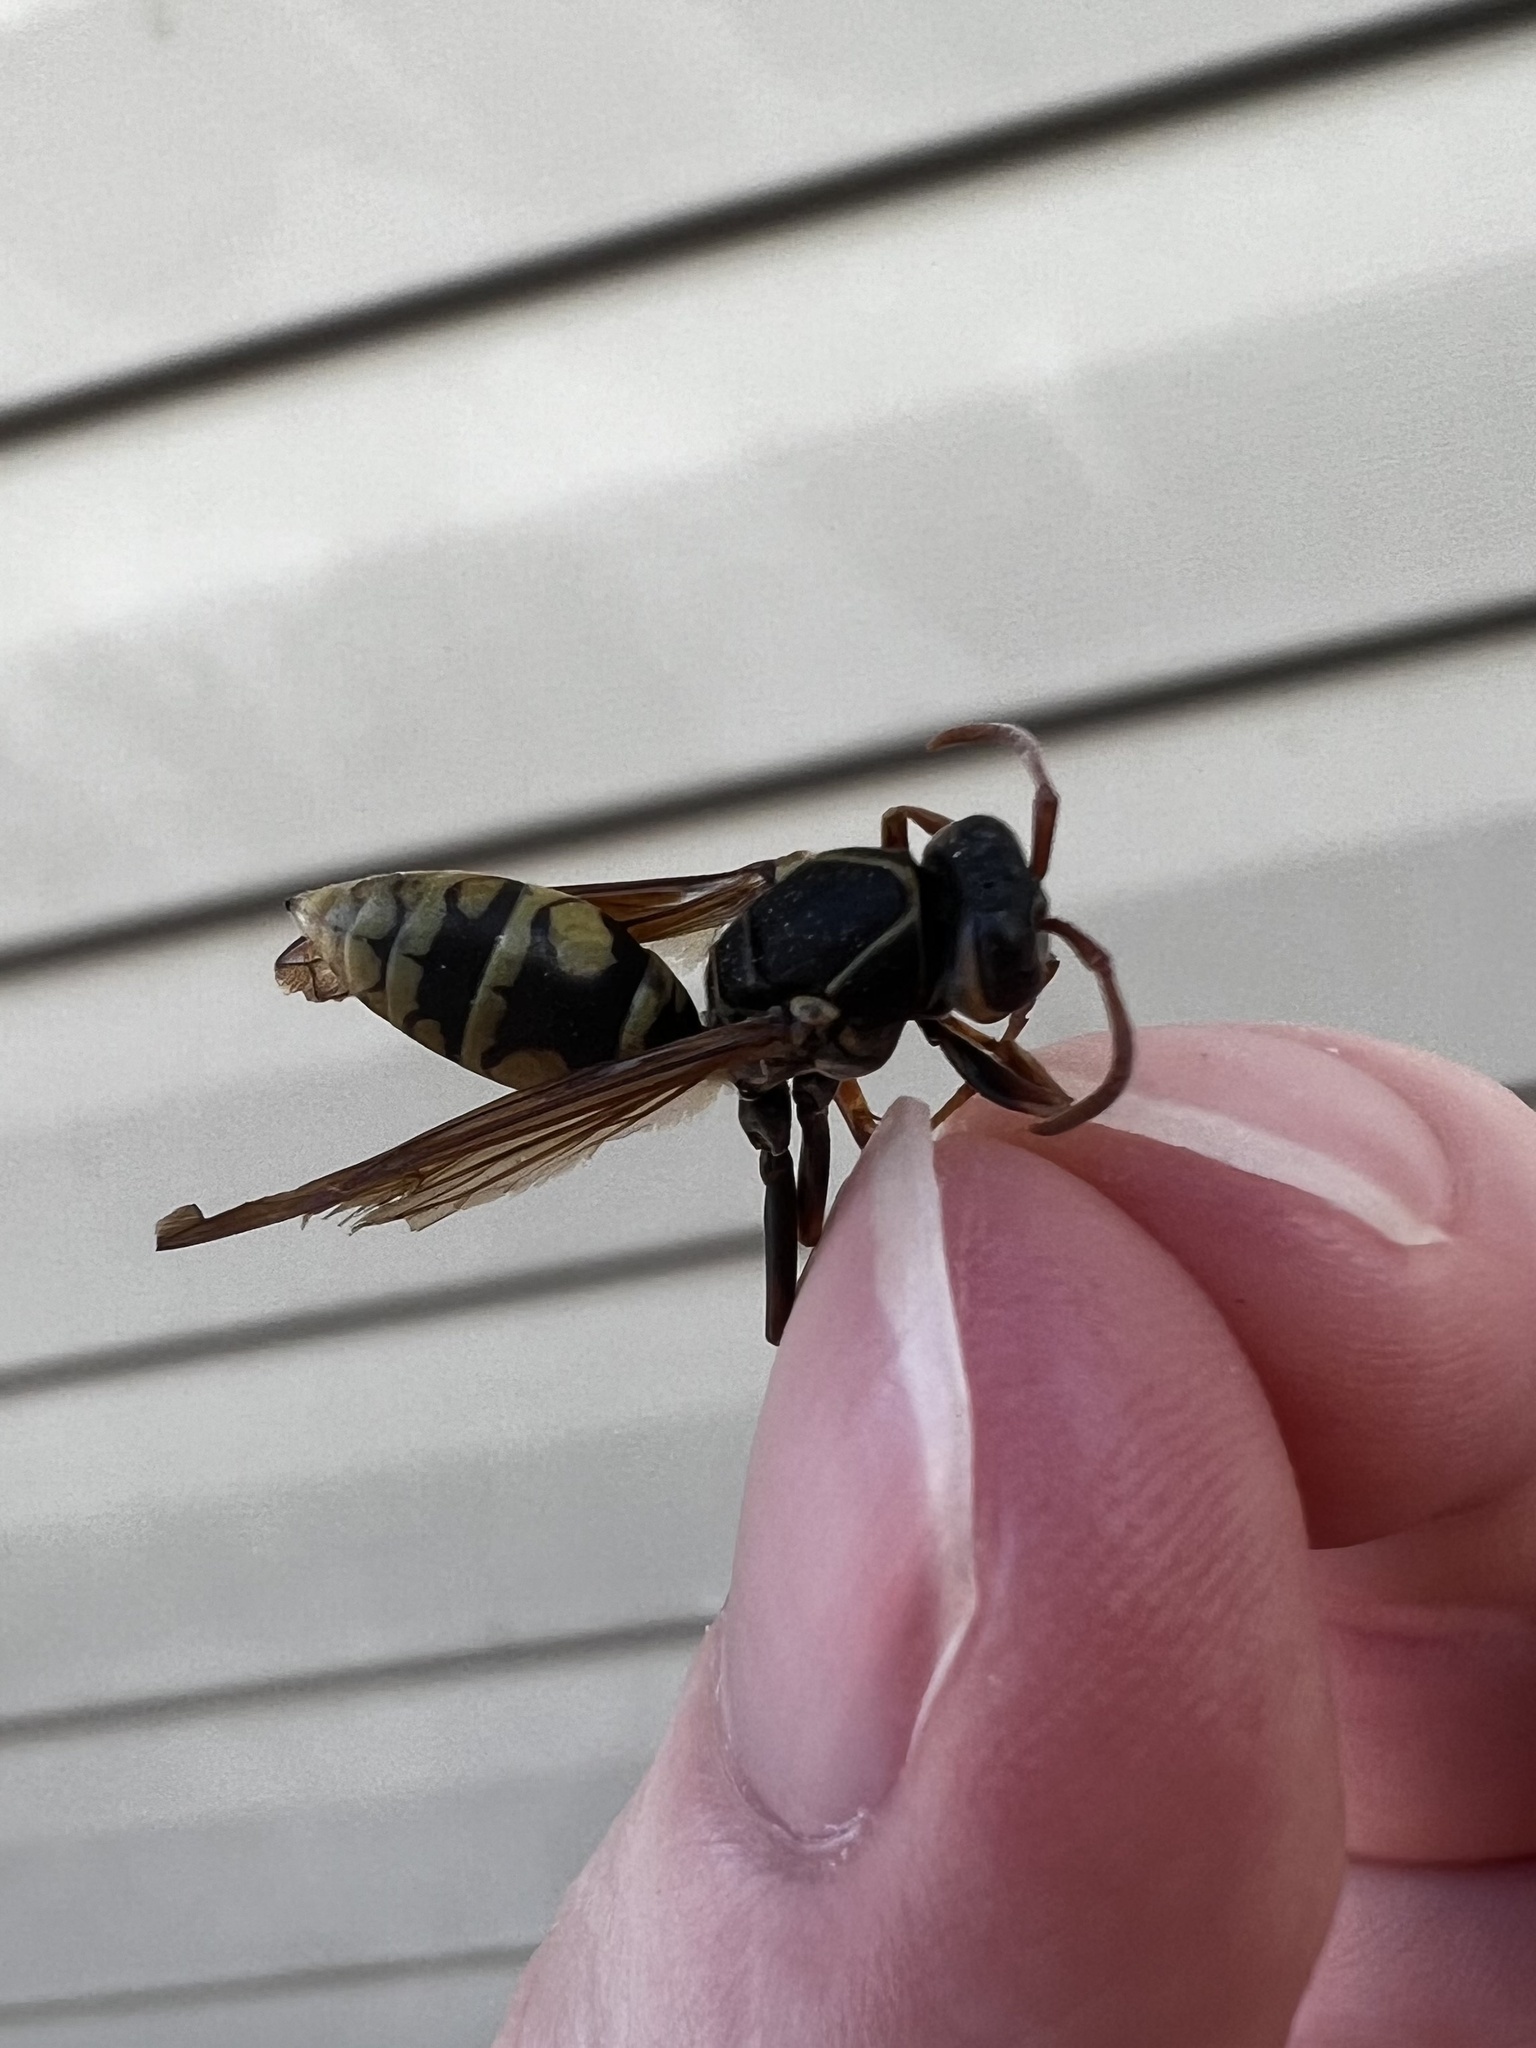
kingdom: Animalia
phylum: Arthropoda
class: Insecta
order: Hymenoptera
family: Eumenidae
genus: Polistes
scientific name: Polistes aurifer
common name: Paper wasp
